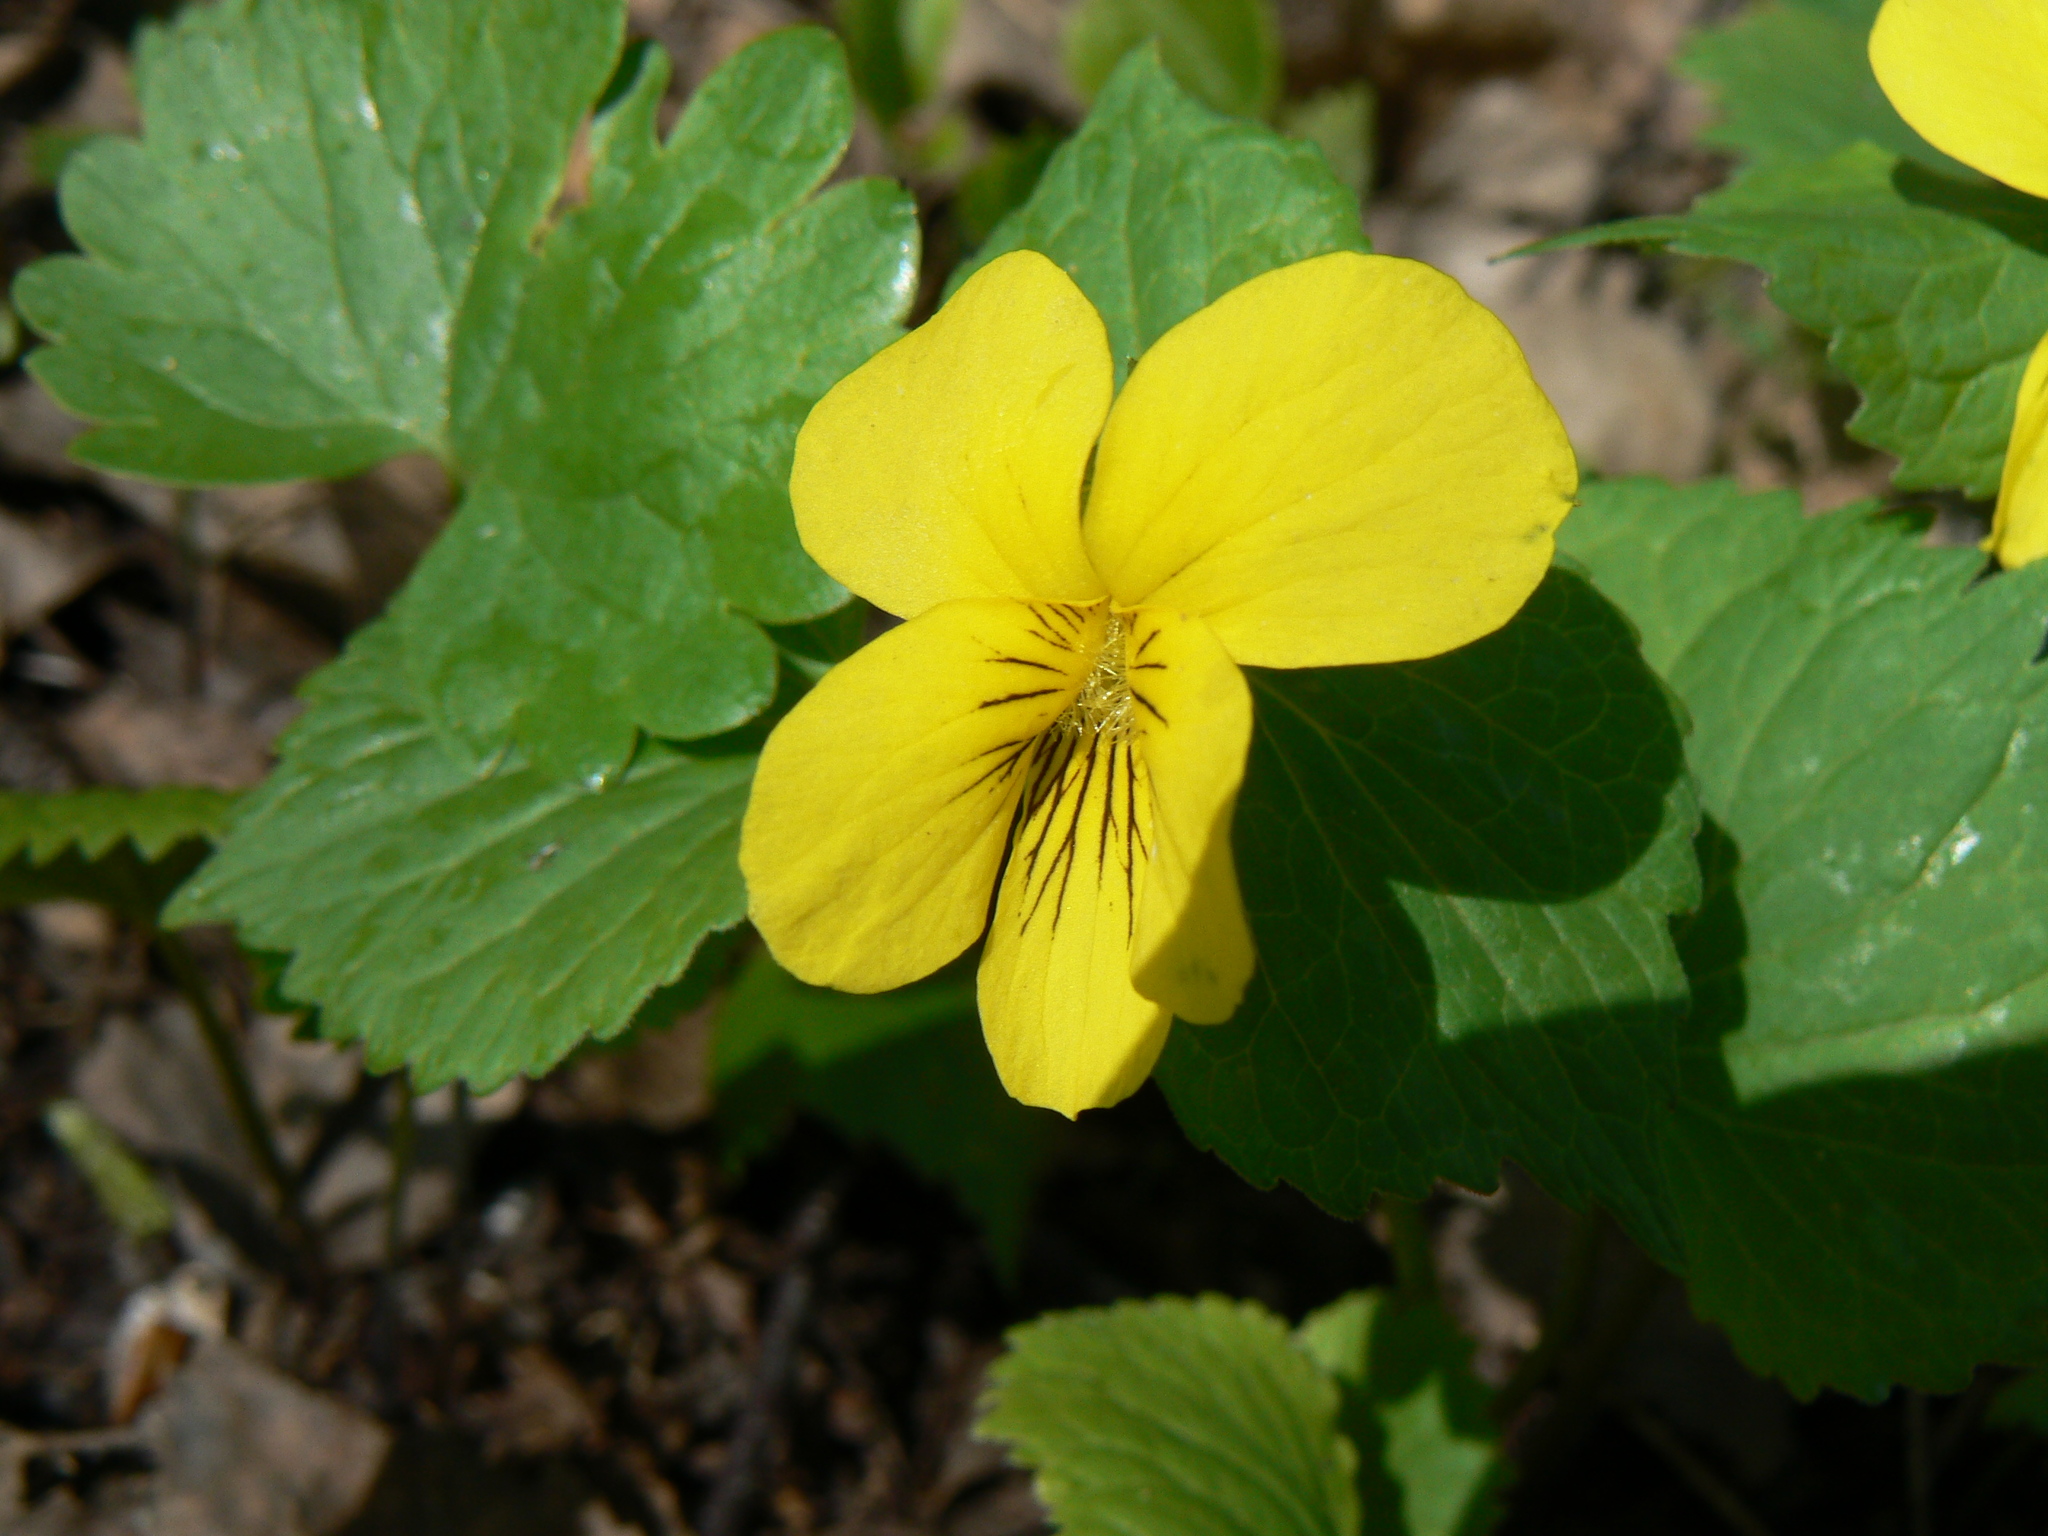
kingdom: Plantae
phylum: Tracheophyta
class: Magnoliopsida
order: Malpighiales
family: Violaceae
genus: Viola
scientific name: Viola uniflora
